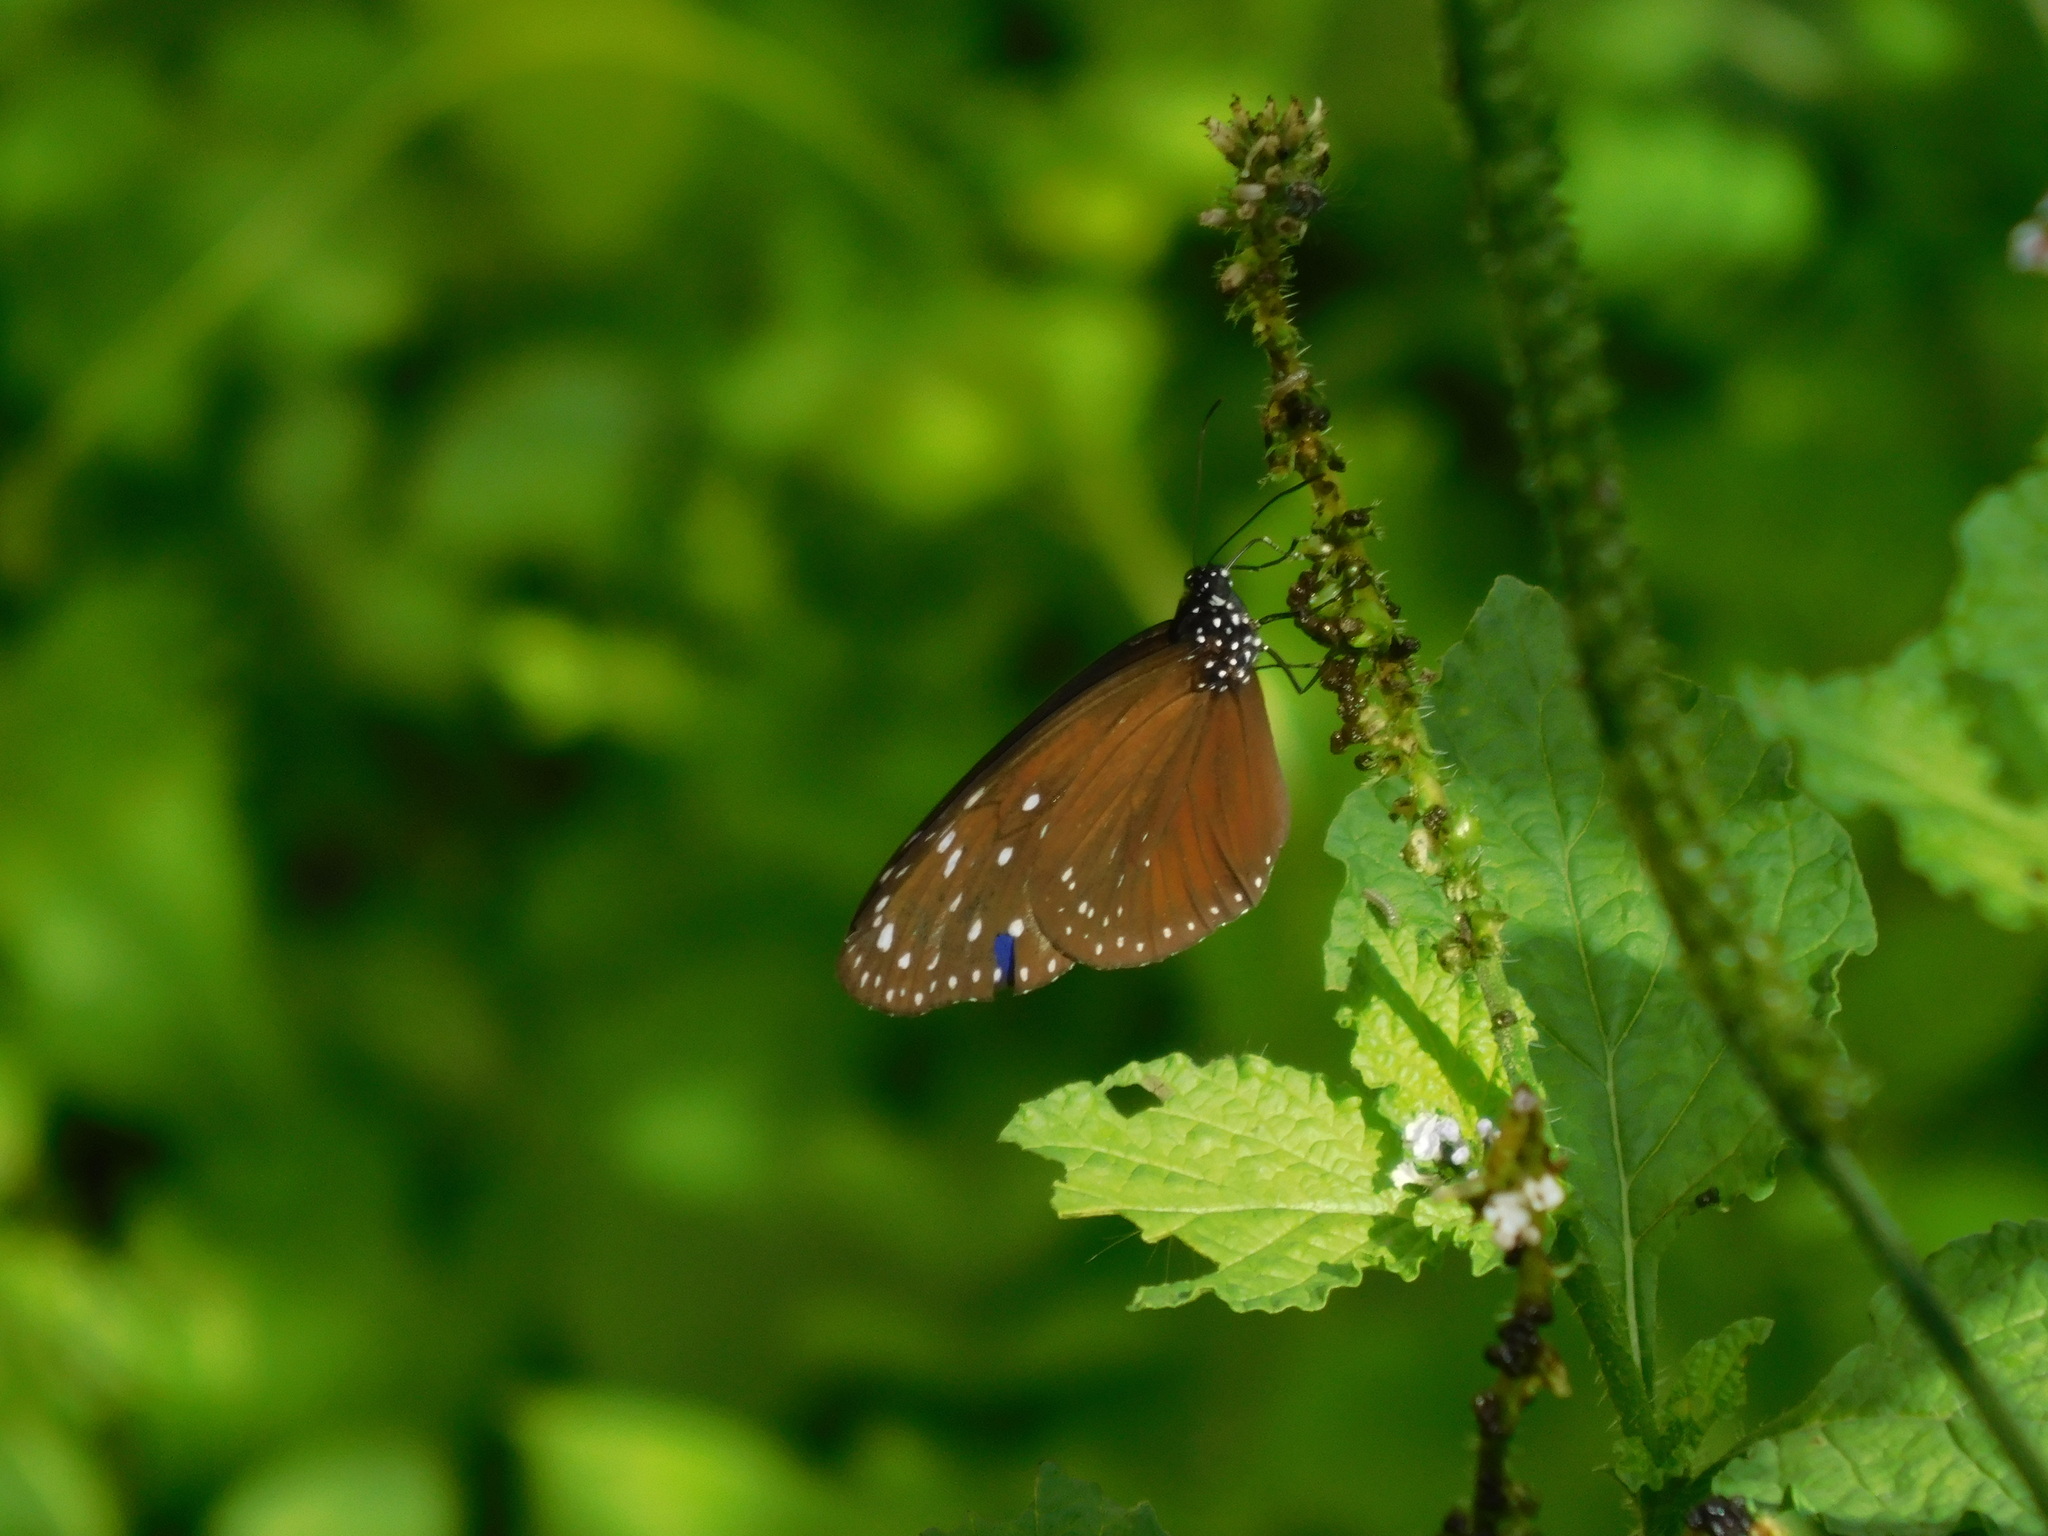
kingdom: Animalia
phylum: Arthropoda
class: Insecta
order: Lepidoptera
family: Nymphalidae
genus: Euploea
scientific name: Euploea mulciber
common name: Striped blue crow butterfly
